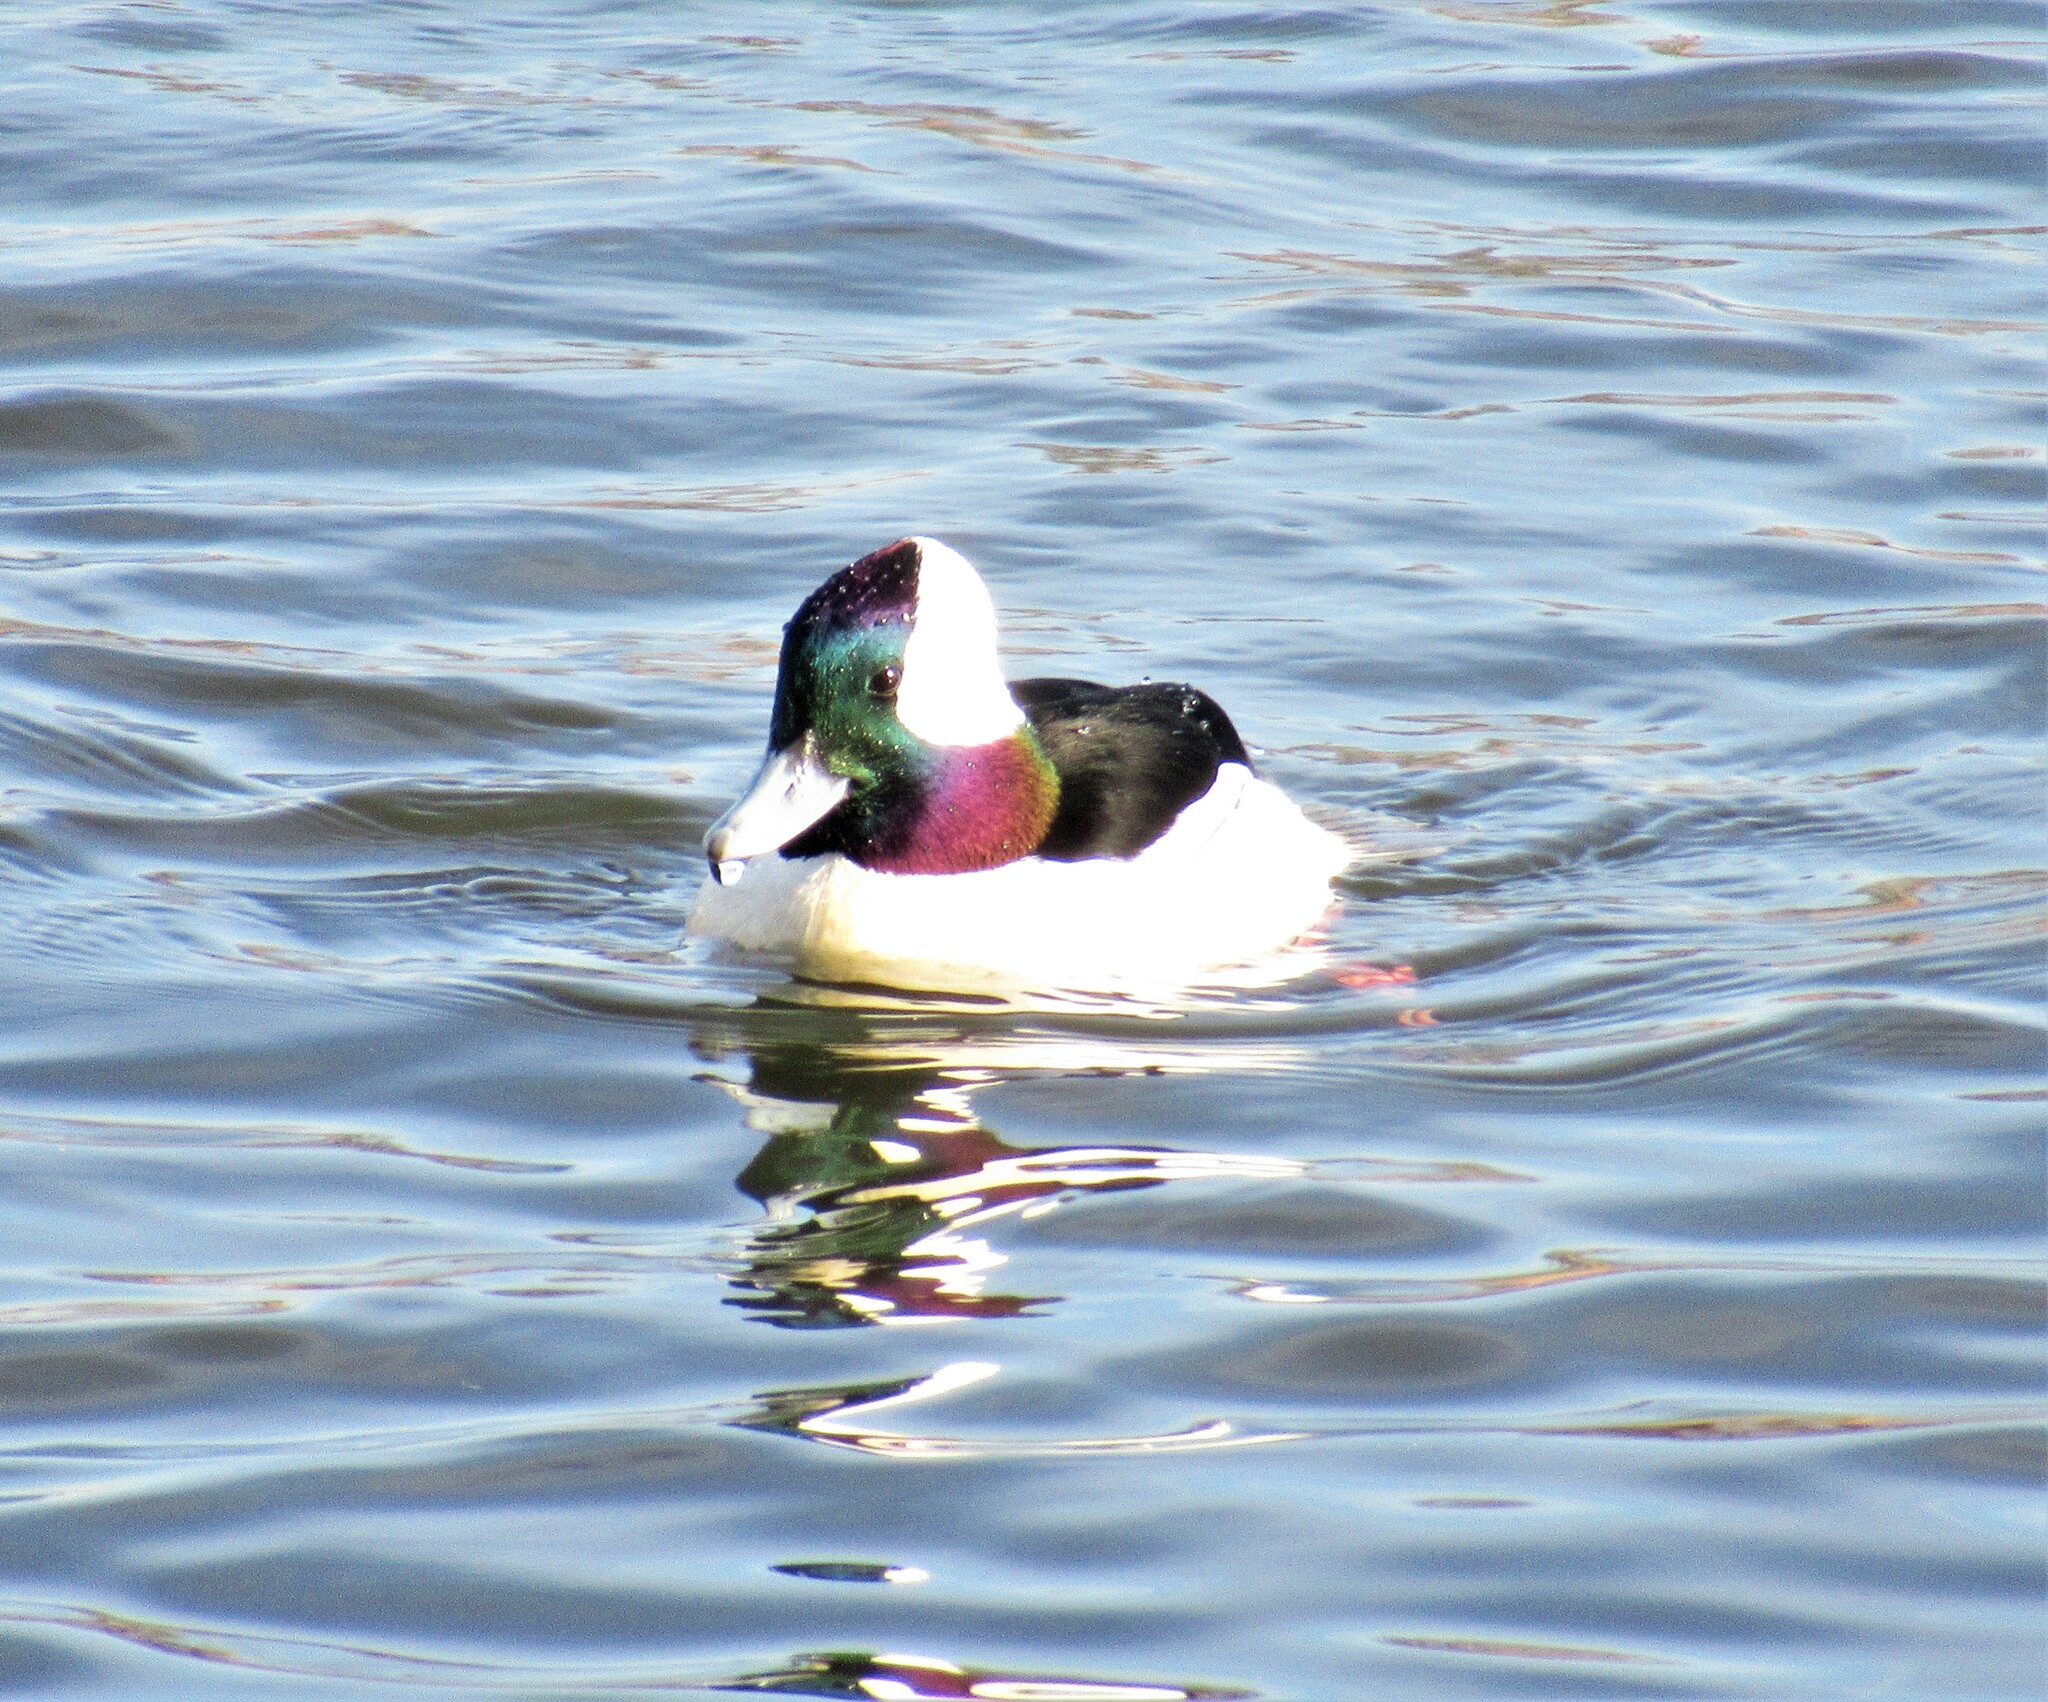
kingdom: Animalia
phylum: Chordata
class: Aves
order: Anseriformes
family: Anatidae
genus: Bucephala
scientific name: Bucephala albeola
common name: Bufflehead
